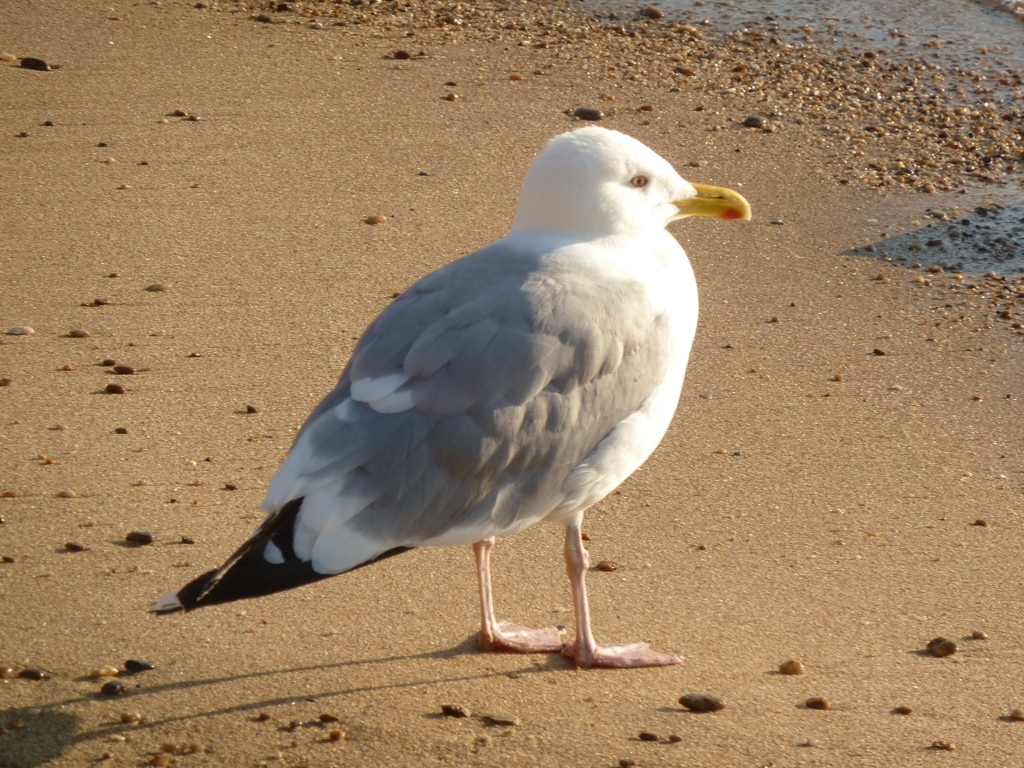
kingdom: Animalia
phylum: Chordata
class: Aves
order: Charadriiformes
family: Laridae
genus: Larus
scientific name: Larus vegae
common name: Vega gull
